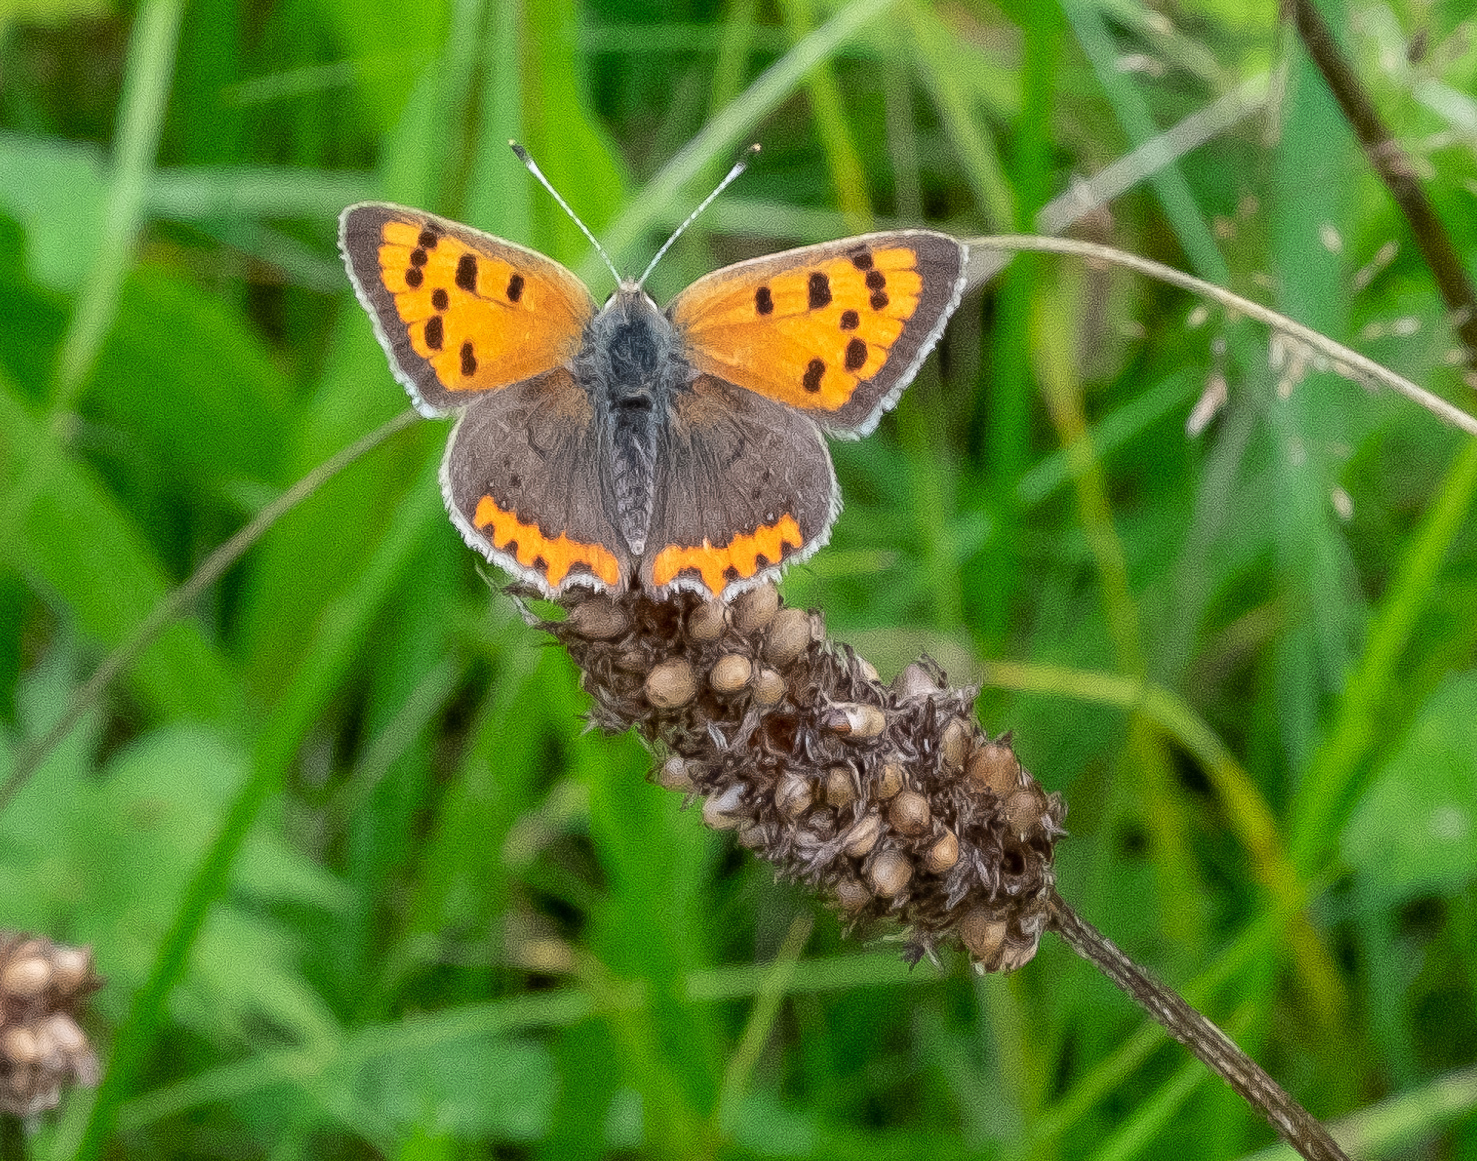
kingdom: Animalia
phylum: Arthropoda
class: Insecta
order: Lepidoptera
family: Lycaenidae
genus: Lycaena
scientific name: Lycaena phlaeas
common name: Small copper
